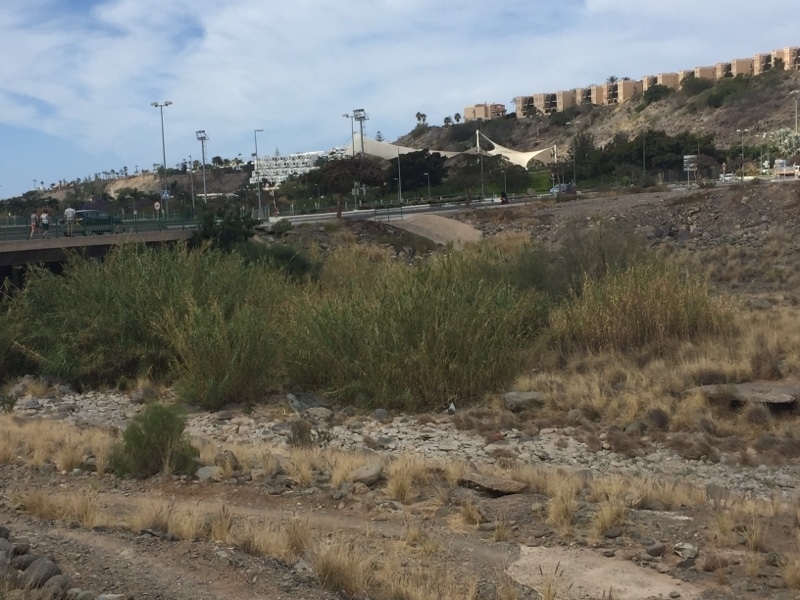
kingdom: Plantae
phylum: Tracheophyta
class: Liliopsida
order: Poales
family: Poaceae
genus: Arundo
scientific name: Arundo donax
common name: Giant reed
